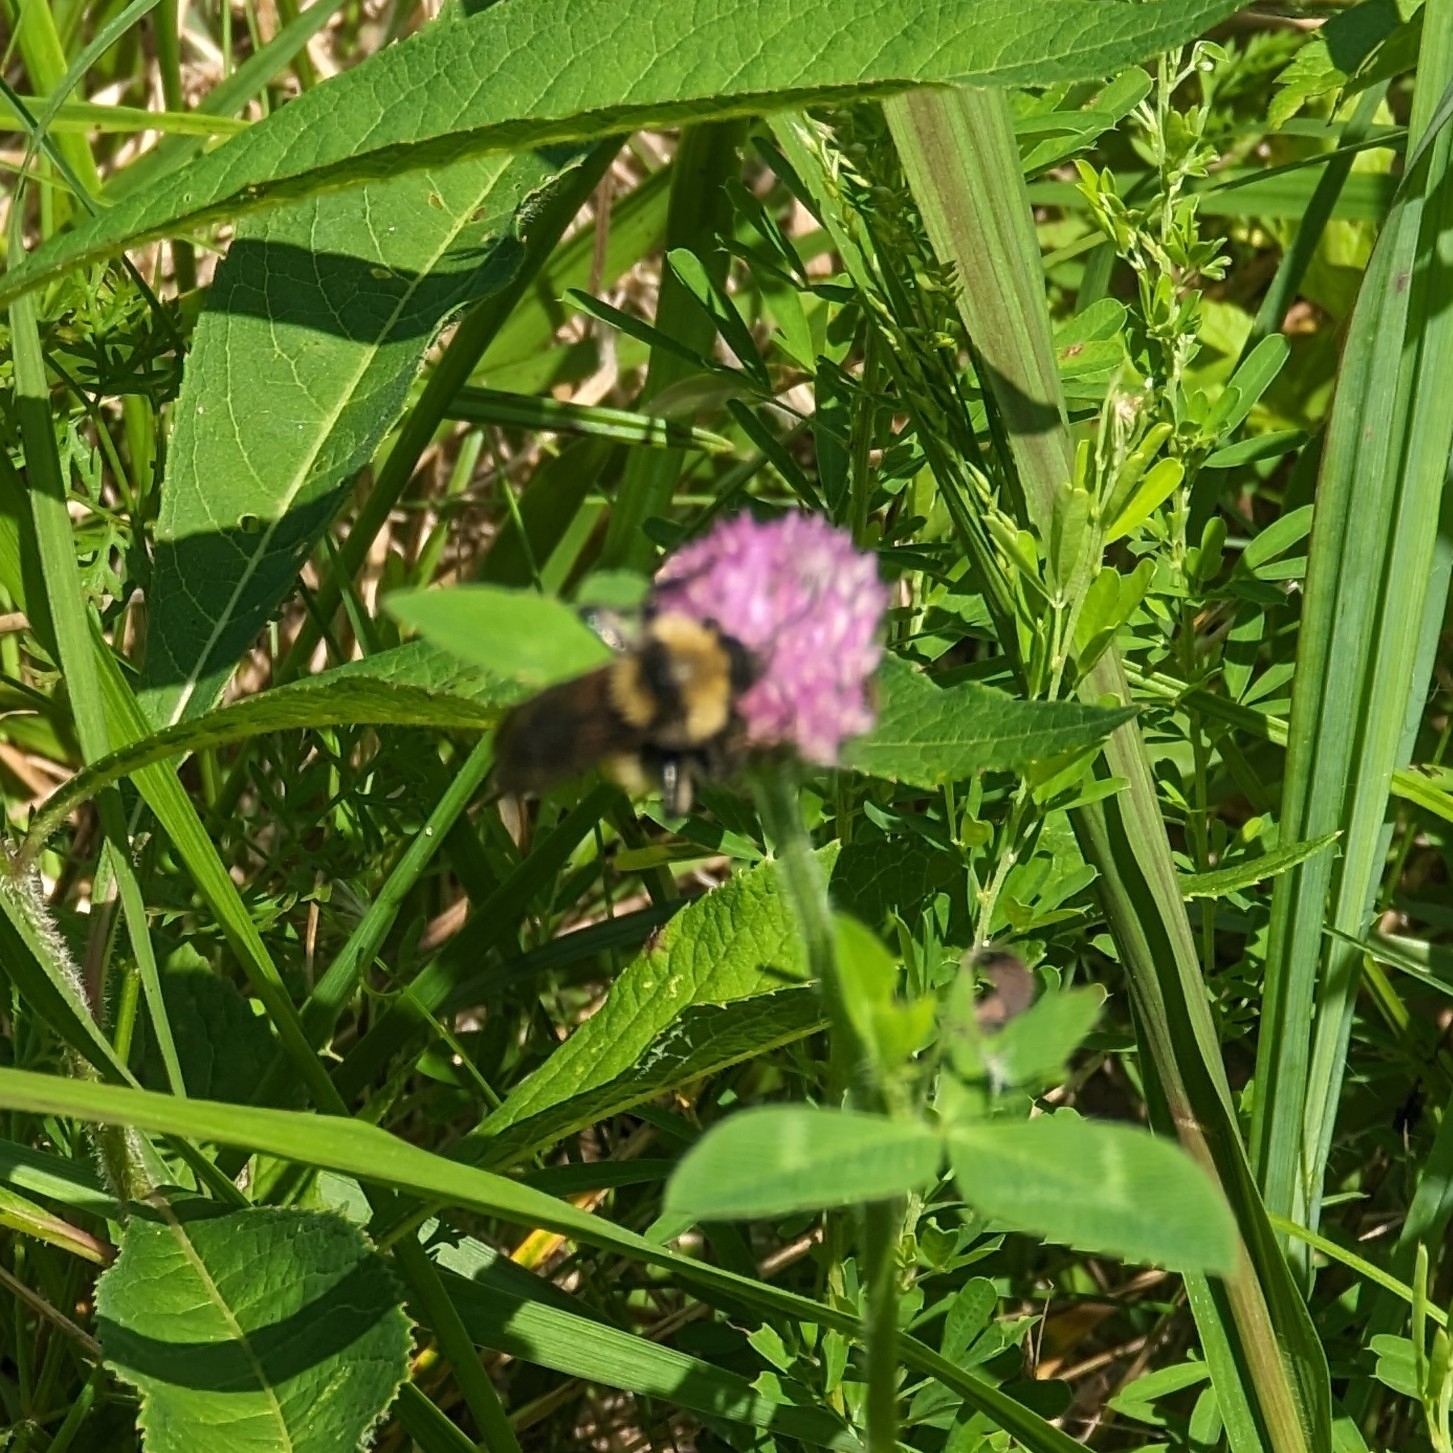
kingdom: Animalia
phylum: Arthropoda
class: Insecta
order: Hymenoptera
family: Apidae
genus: Bombus
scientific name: Bombus pensylvanicus
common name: Bumble bee
